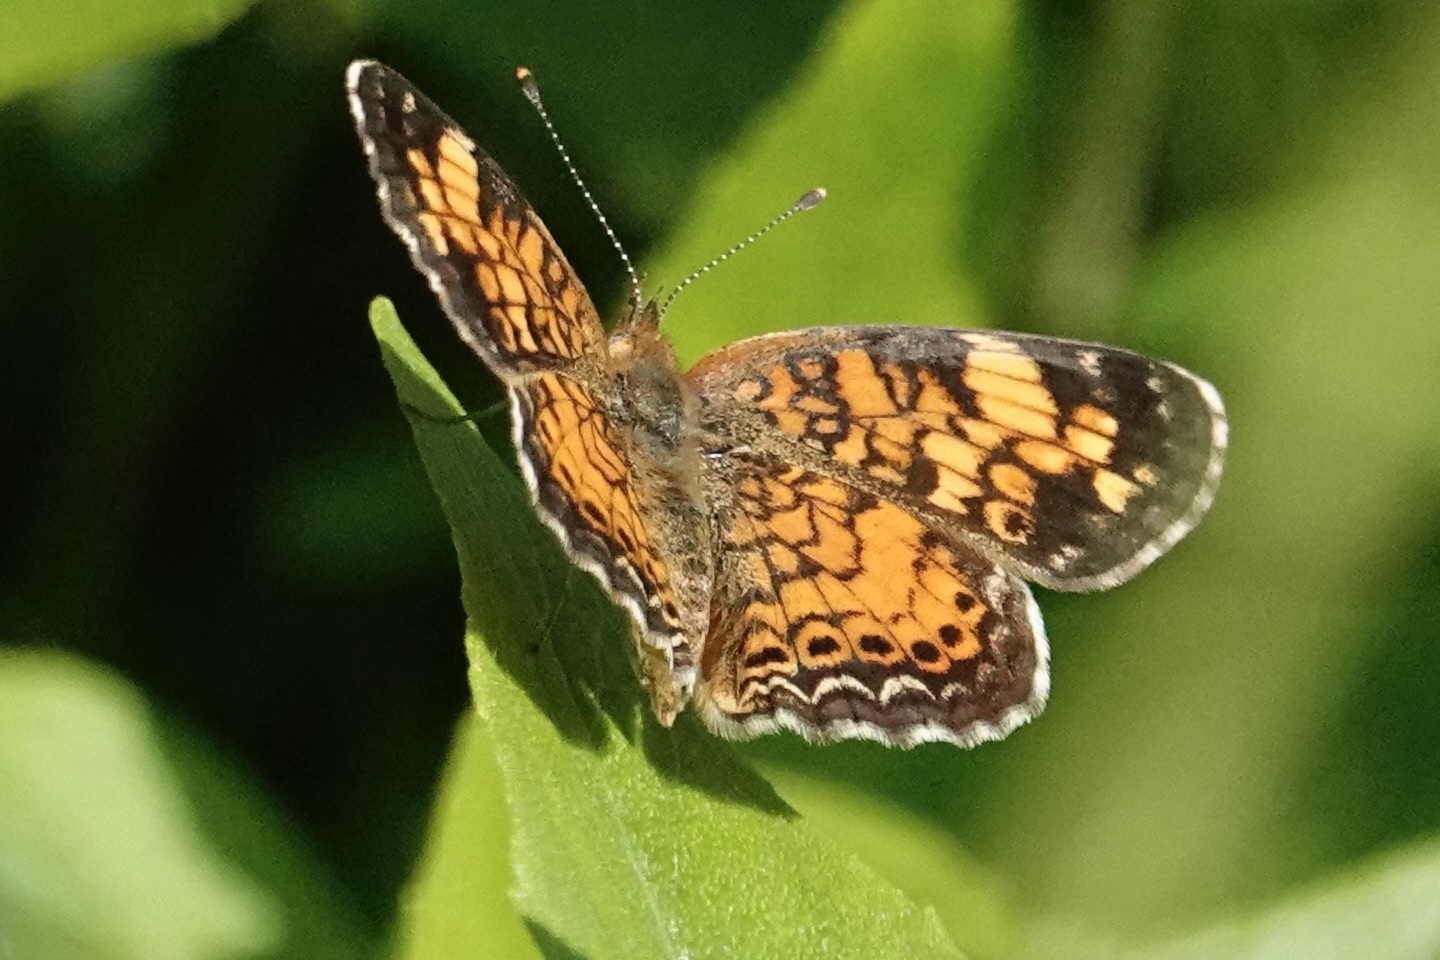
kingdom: Animalia
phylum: Arthropoda
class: Insecta
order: Lepidoptera
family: Nymphalidae
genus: Phyciodes
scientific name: Phyciodes tharos
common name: Pearl crescent
